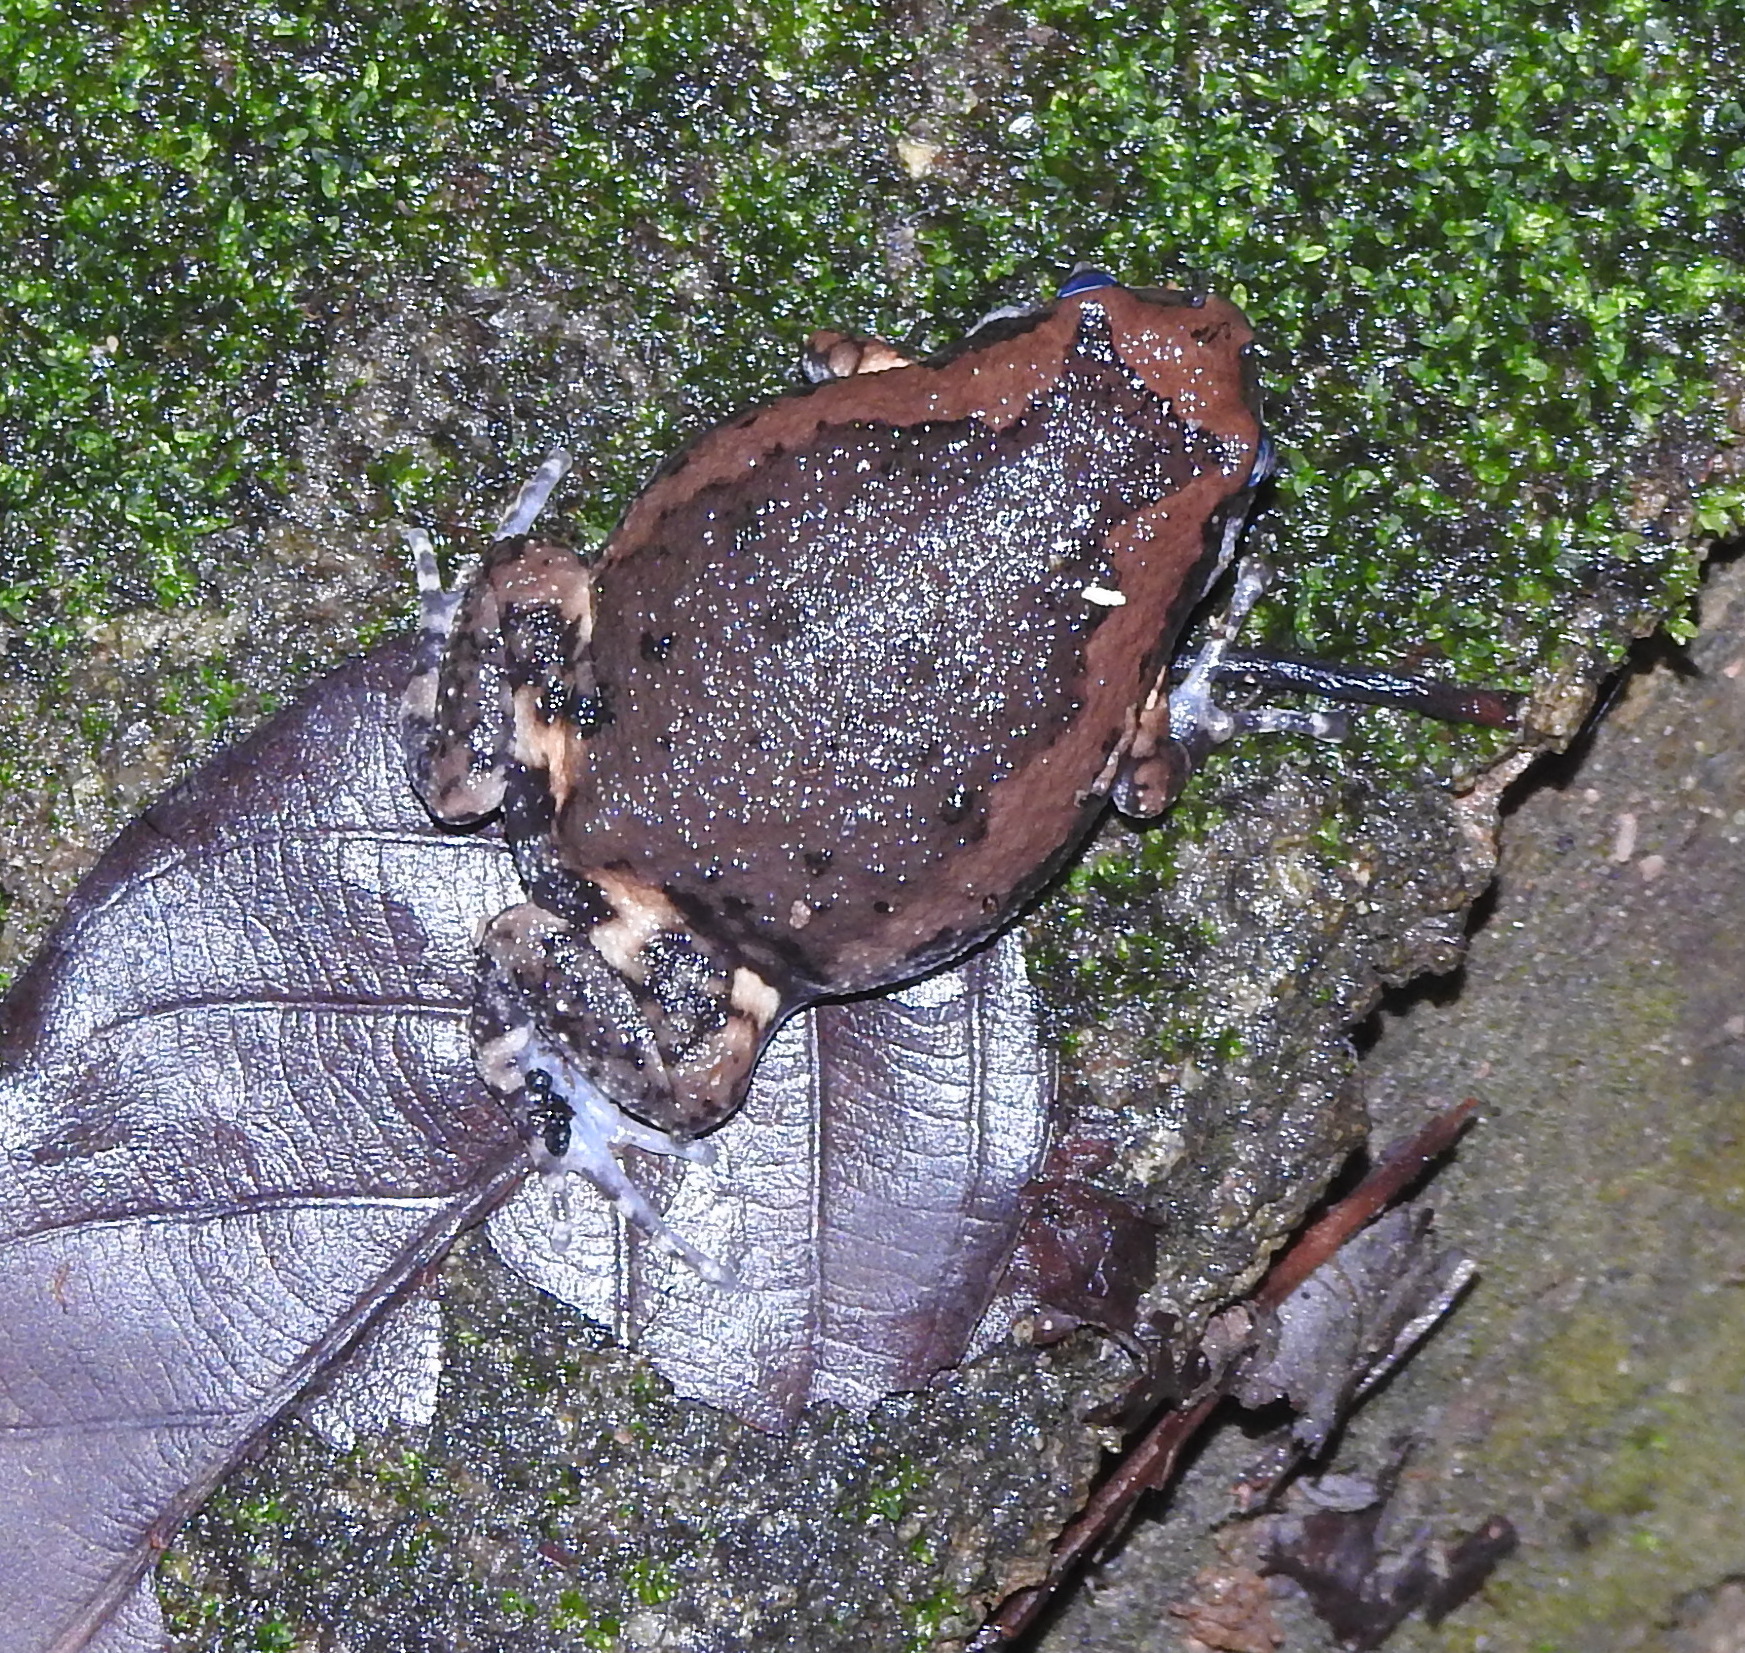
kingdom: Animalia
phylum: Chordata
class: Amphibia
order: Anura
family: Microhylidae
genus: Kaloula
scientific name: Kaloula pulchra
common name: Common,banded bullfrog
